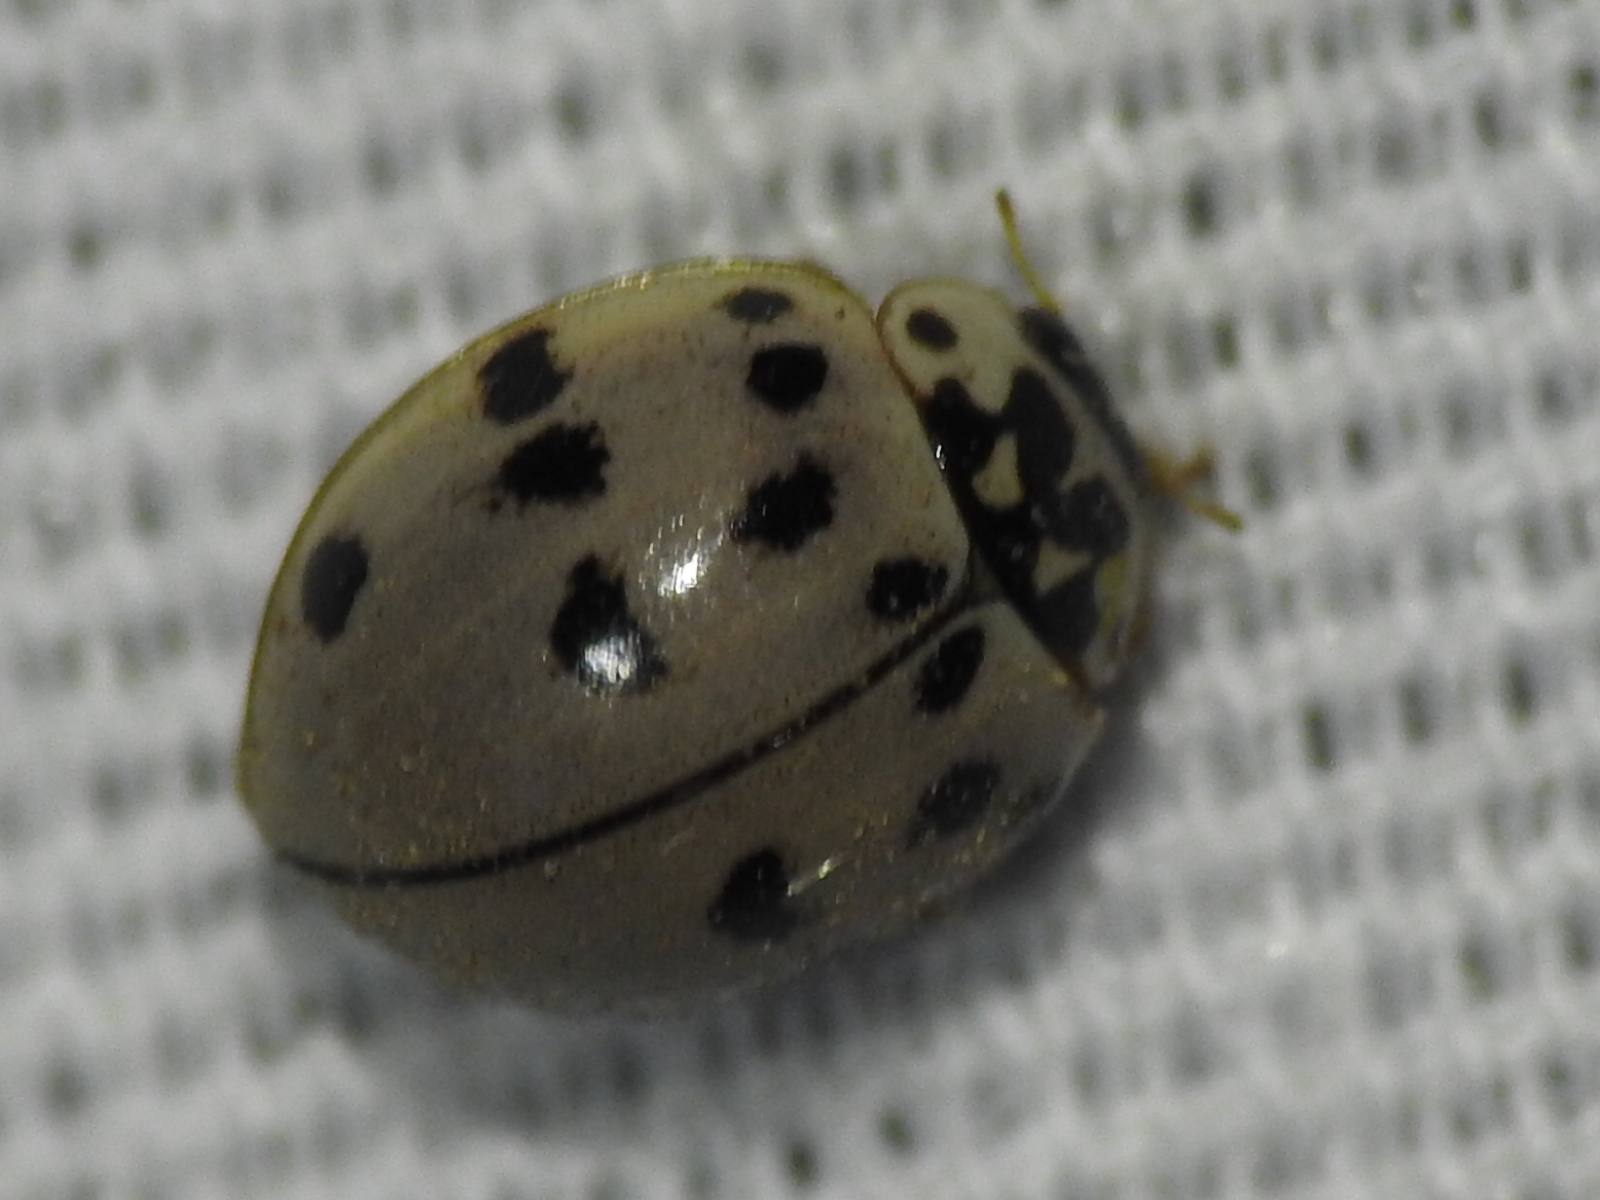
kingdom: Animalia
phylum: Arthropoda
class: Insecta
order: Coleoptera
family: Coccinellidae
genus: Olla
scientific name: Olla v-nigrum
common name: Ashy gray lady beetle
